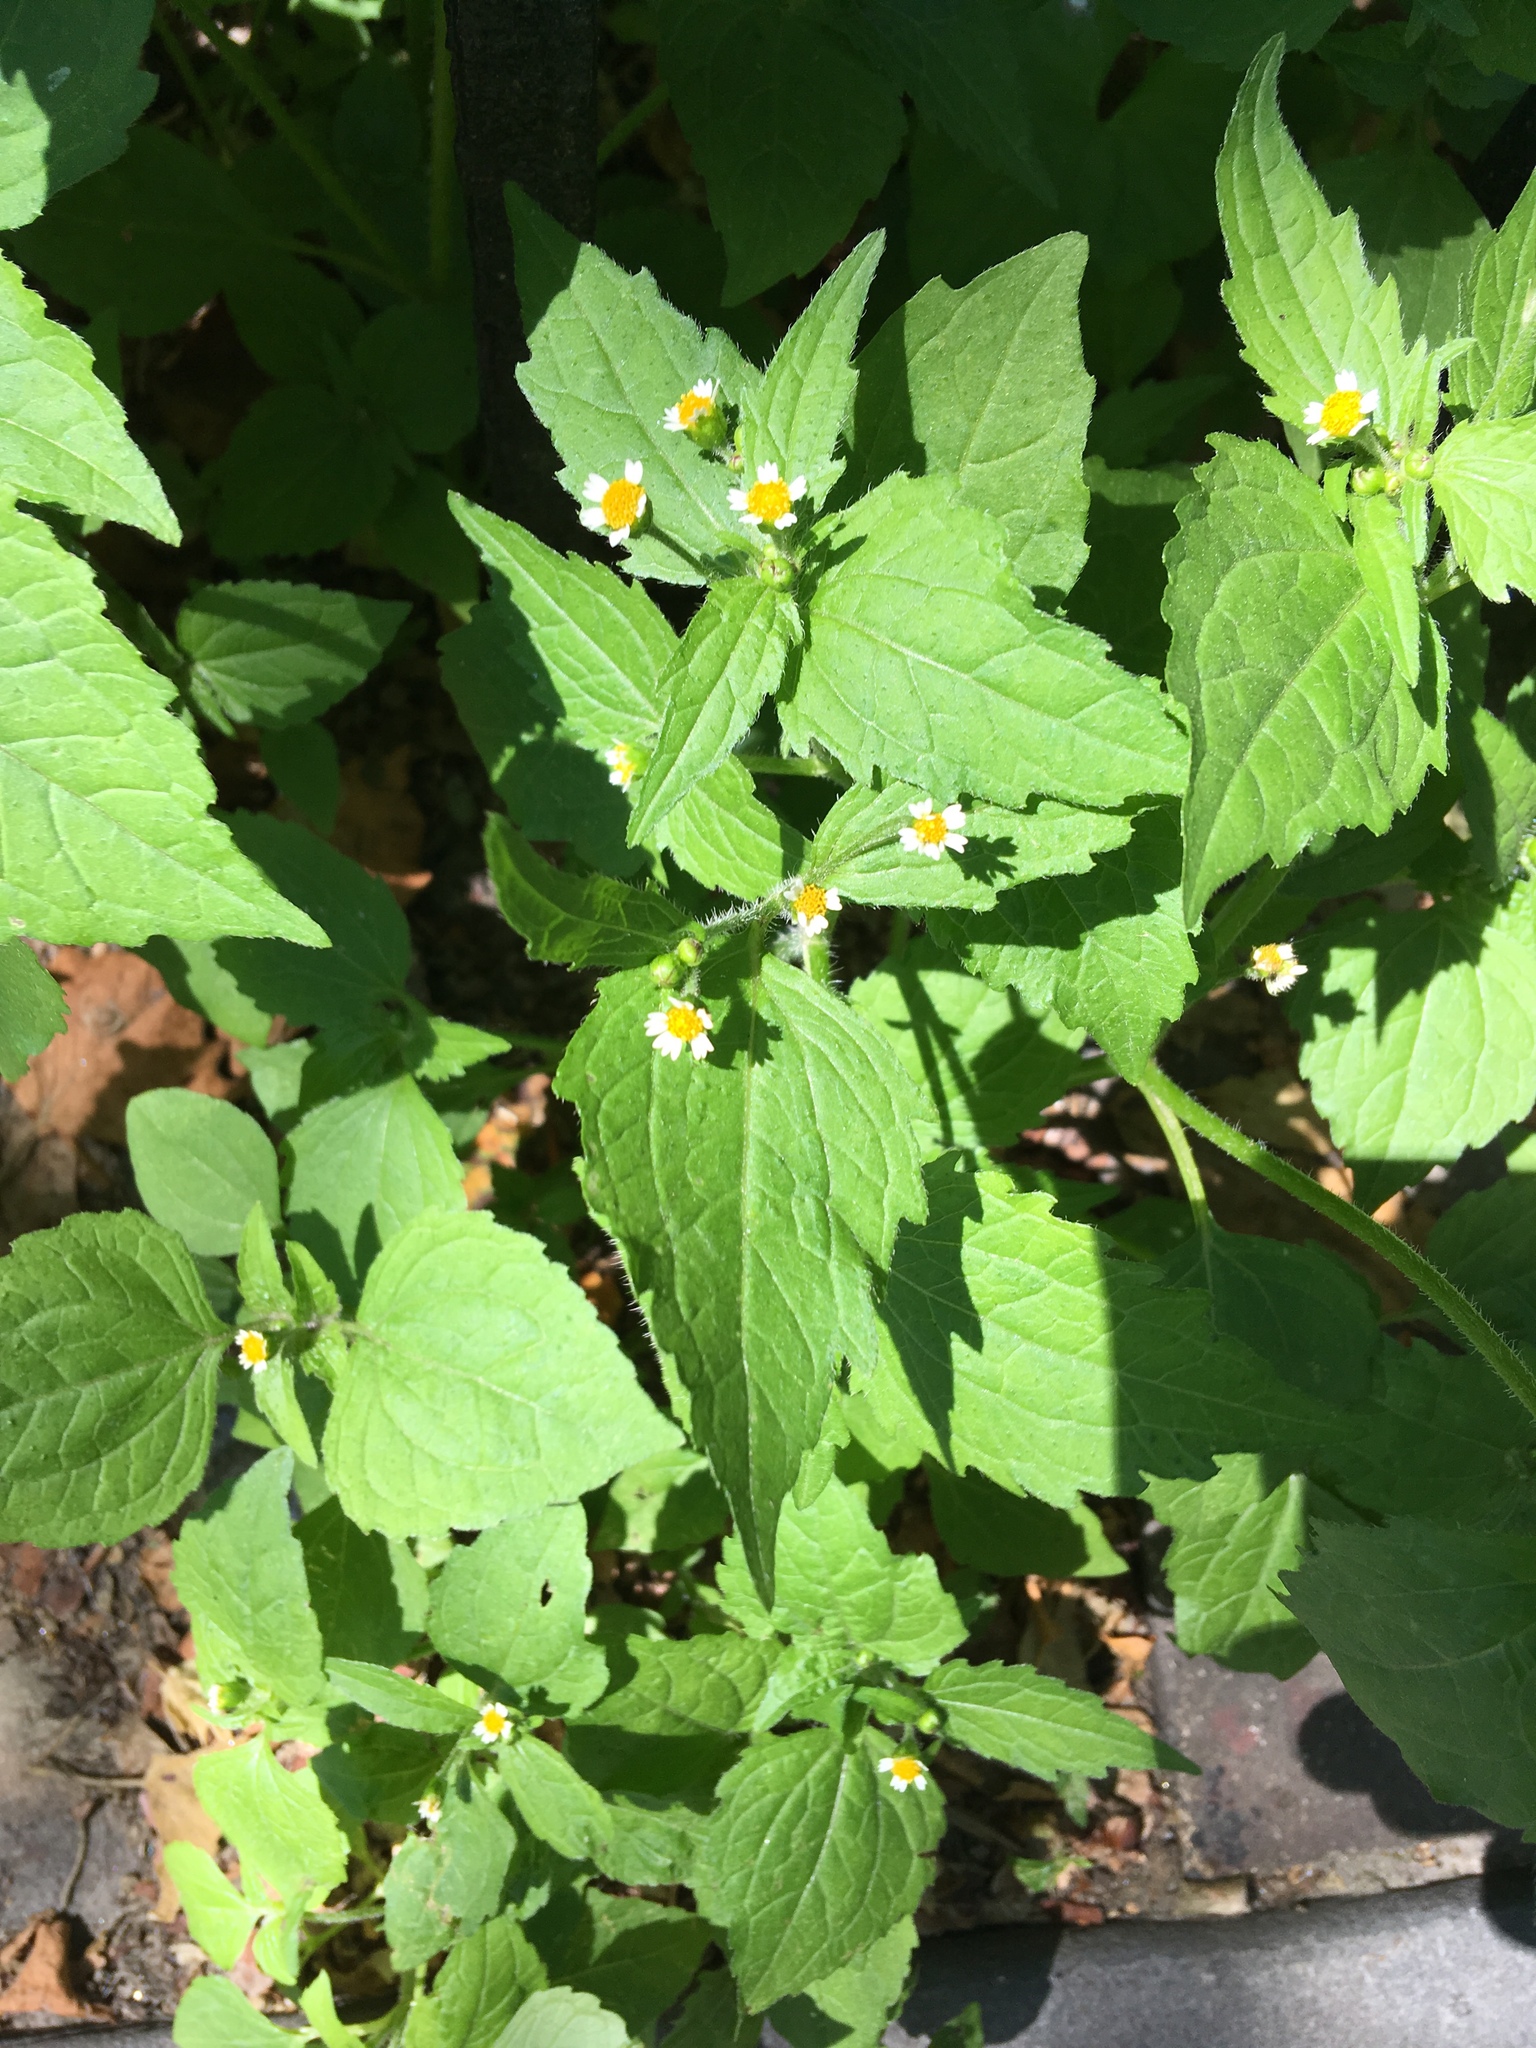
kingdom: Plantae
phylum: Tracheophyta
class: Magnoliopsida
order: Asterales
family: Asteraceae
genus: Galinsoga
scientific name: Galinsoga quadriradiata
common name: Shaggy soldier
